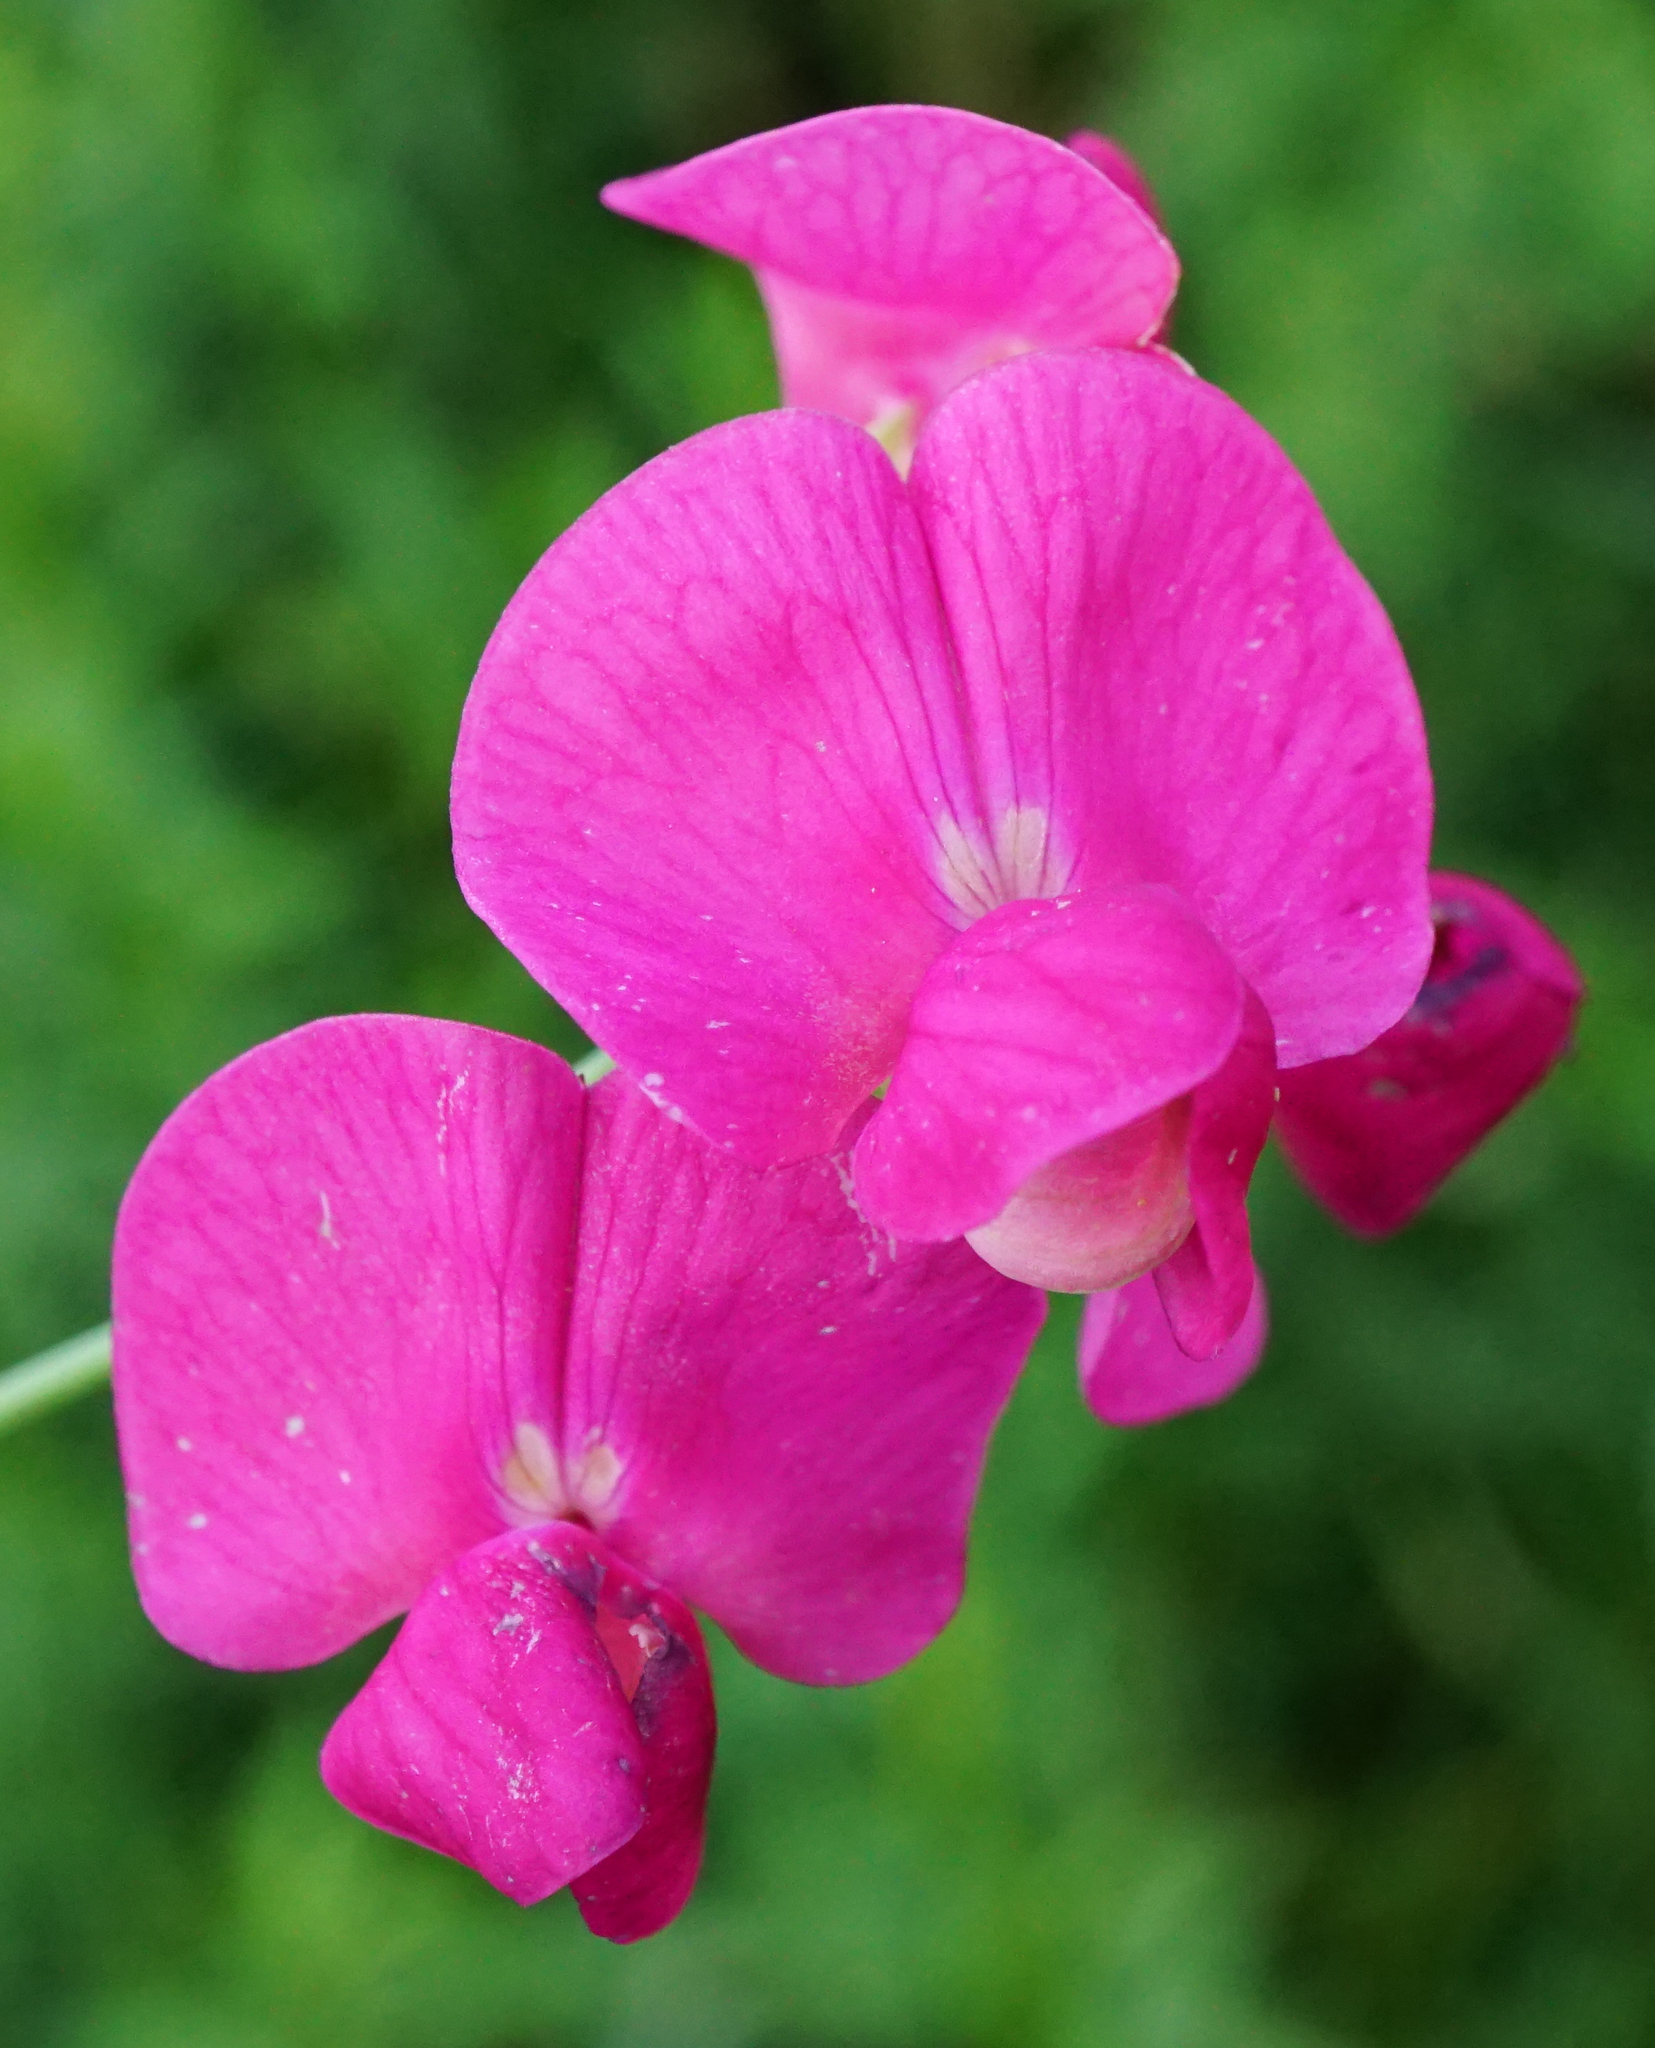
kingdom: Plantae
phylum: Tracheophyta
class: Magnoliopsida
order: Fabales
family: Fabaceae
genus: Lathyrus
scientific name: Lathyrus tuberosus
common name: Tuberous pea
